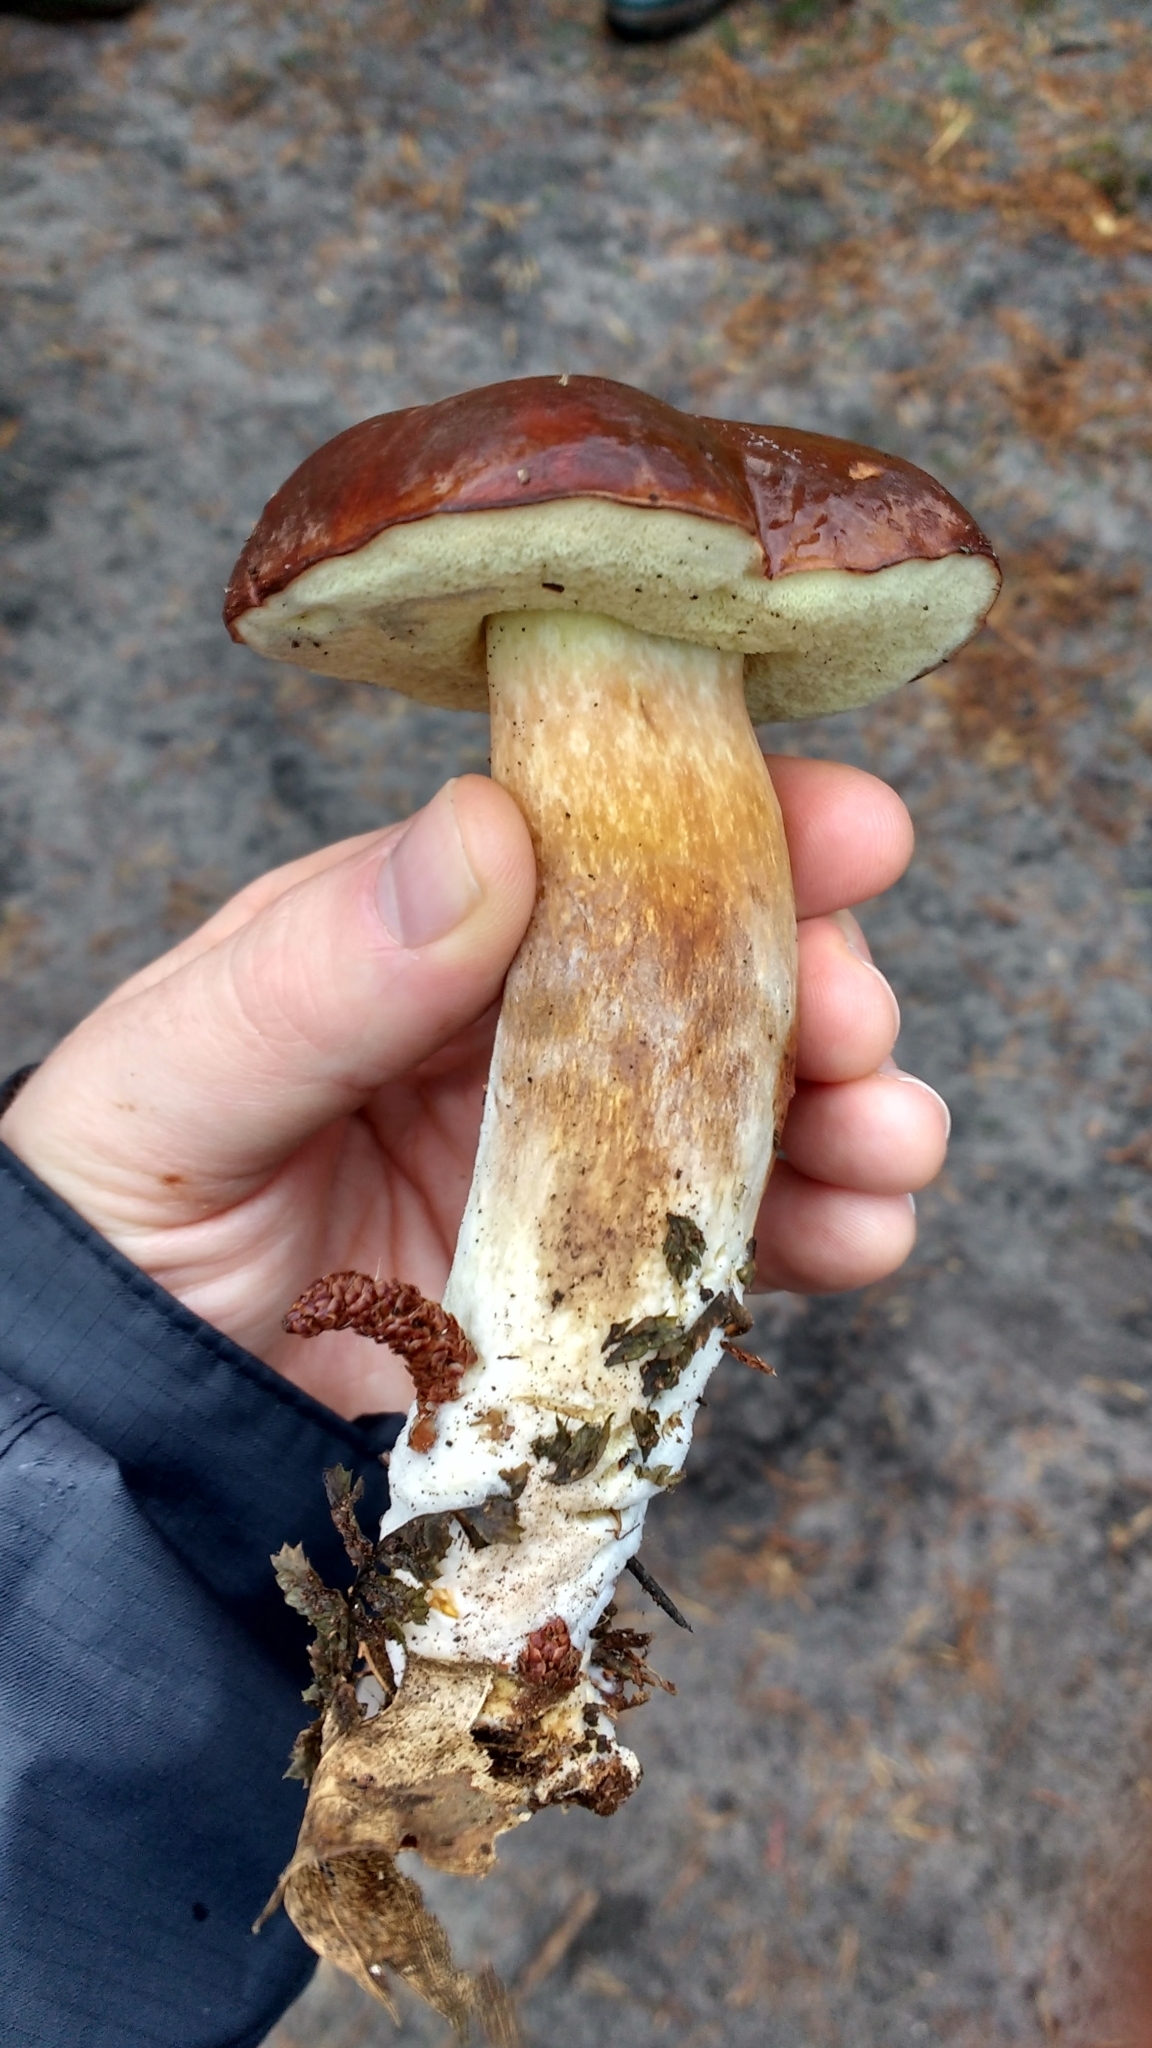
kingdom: Fungi
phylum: Basidiomycota
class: Agaricomycetes
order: Boletales
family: Boletaceae
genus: Imleria
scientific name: Imleria badia
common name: Bay bolete
